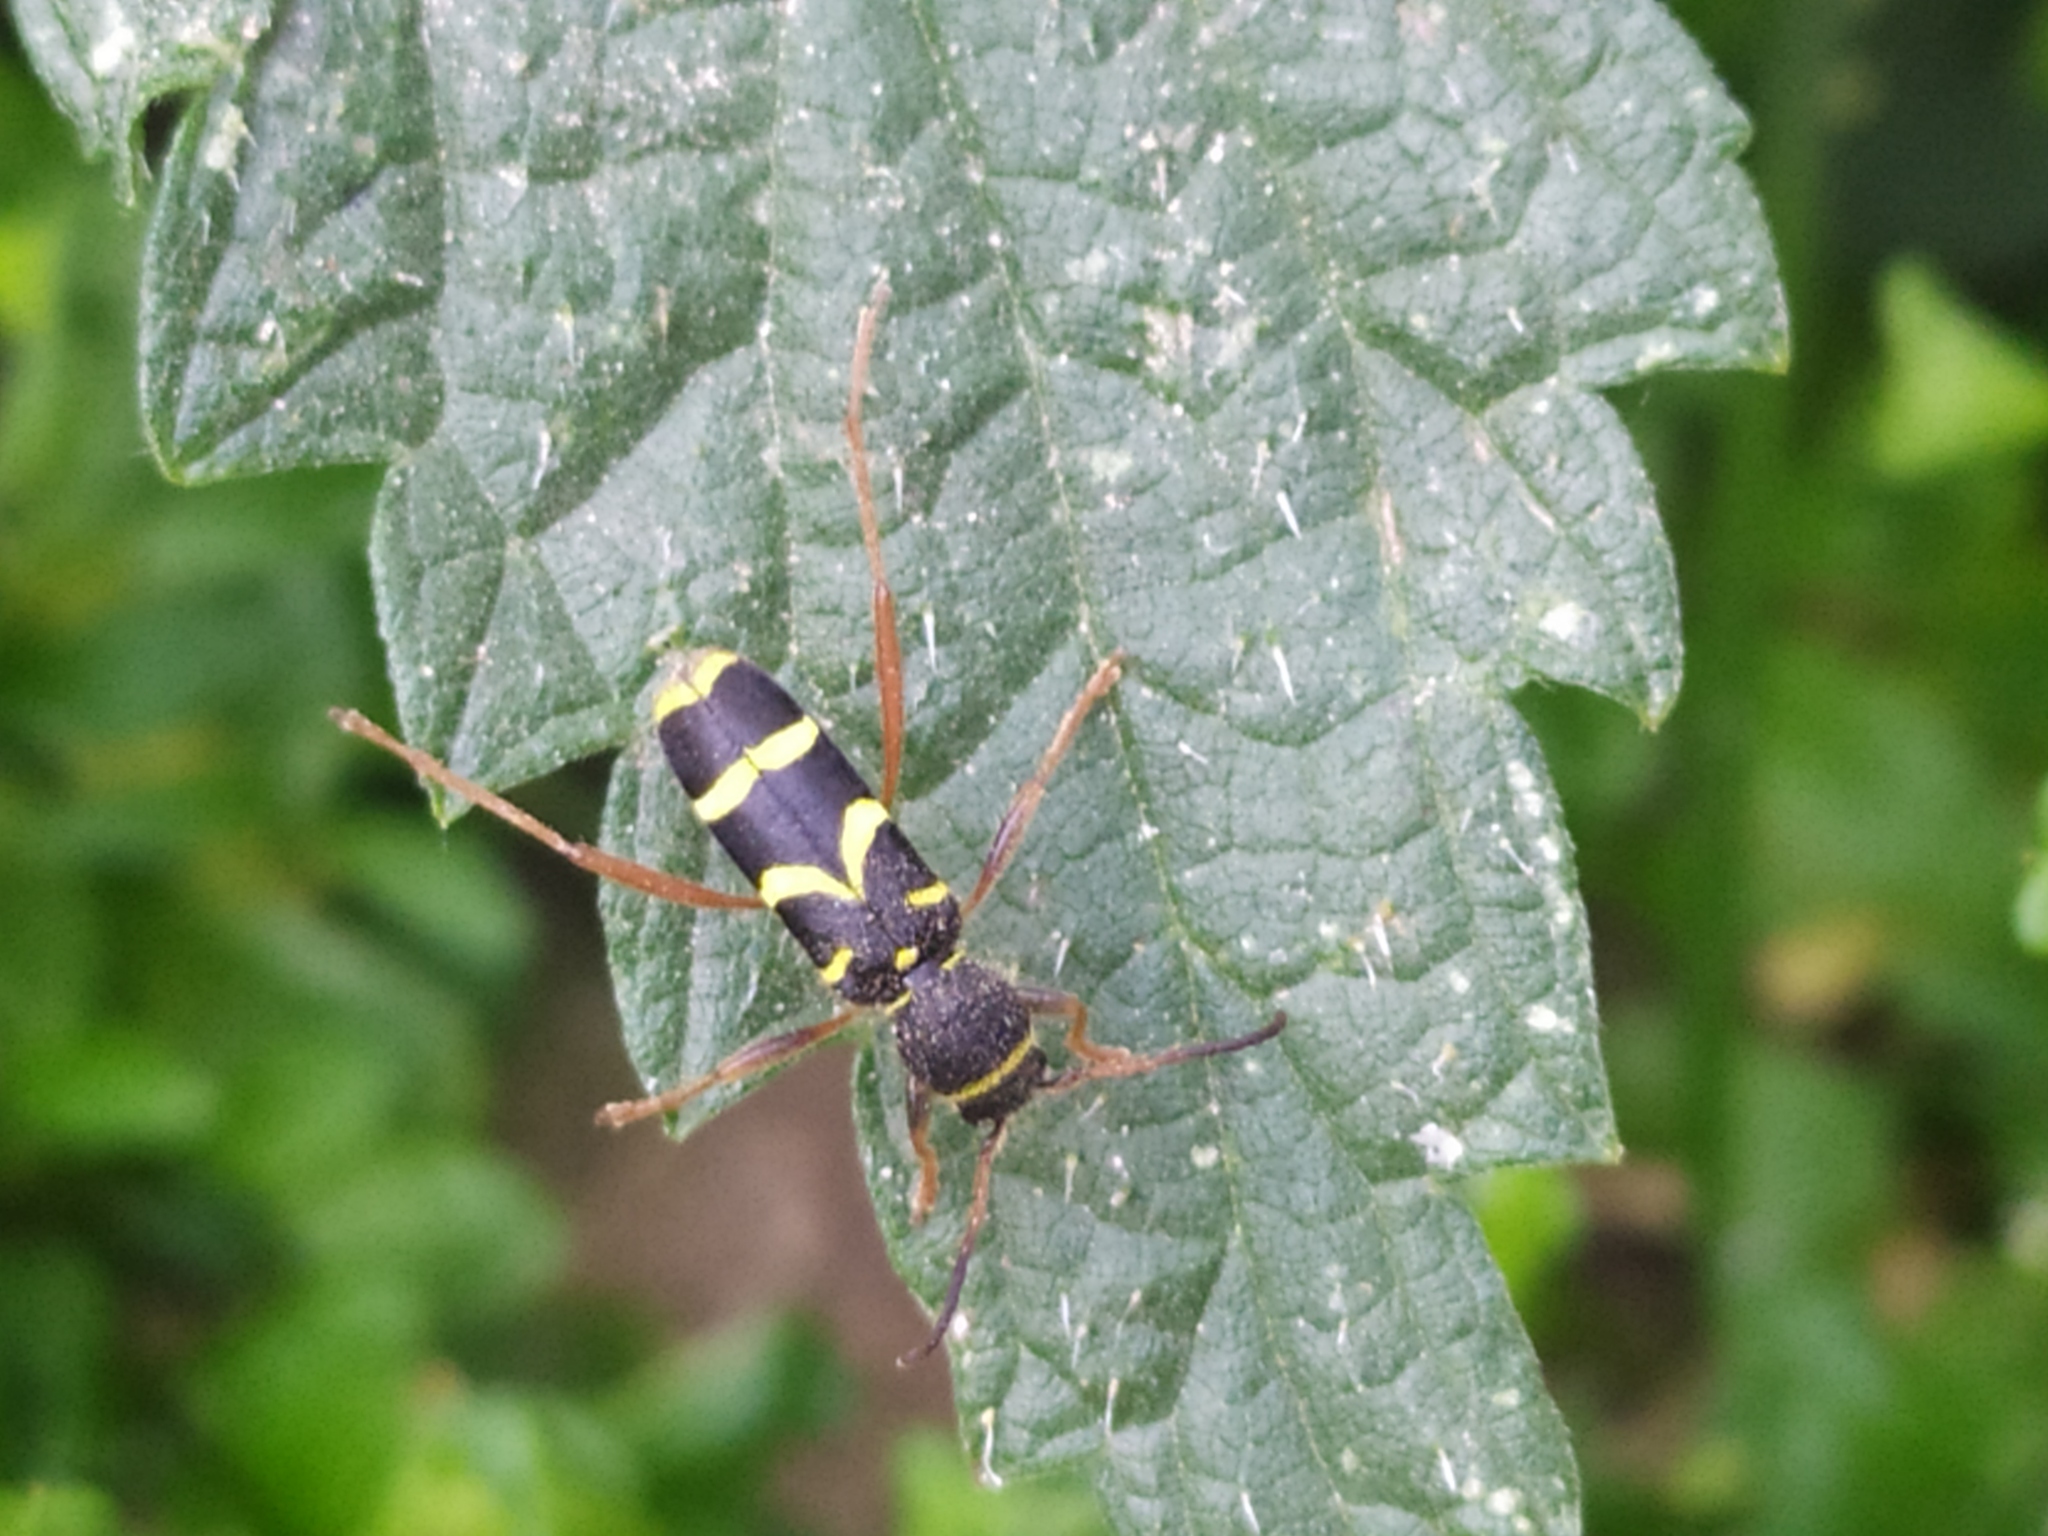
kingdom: Animalia
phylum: Arthropoda
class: Insecta
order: Coleoptera
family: Cerambycidae
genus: Clytus
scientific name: Clytus arietis
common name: Wasp beetle
